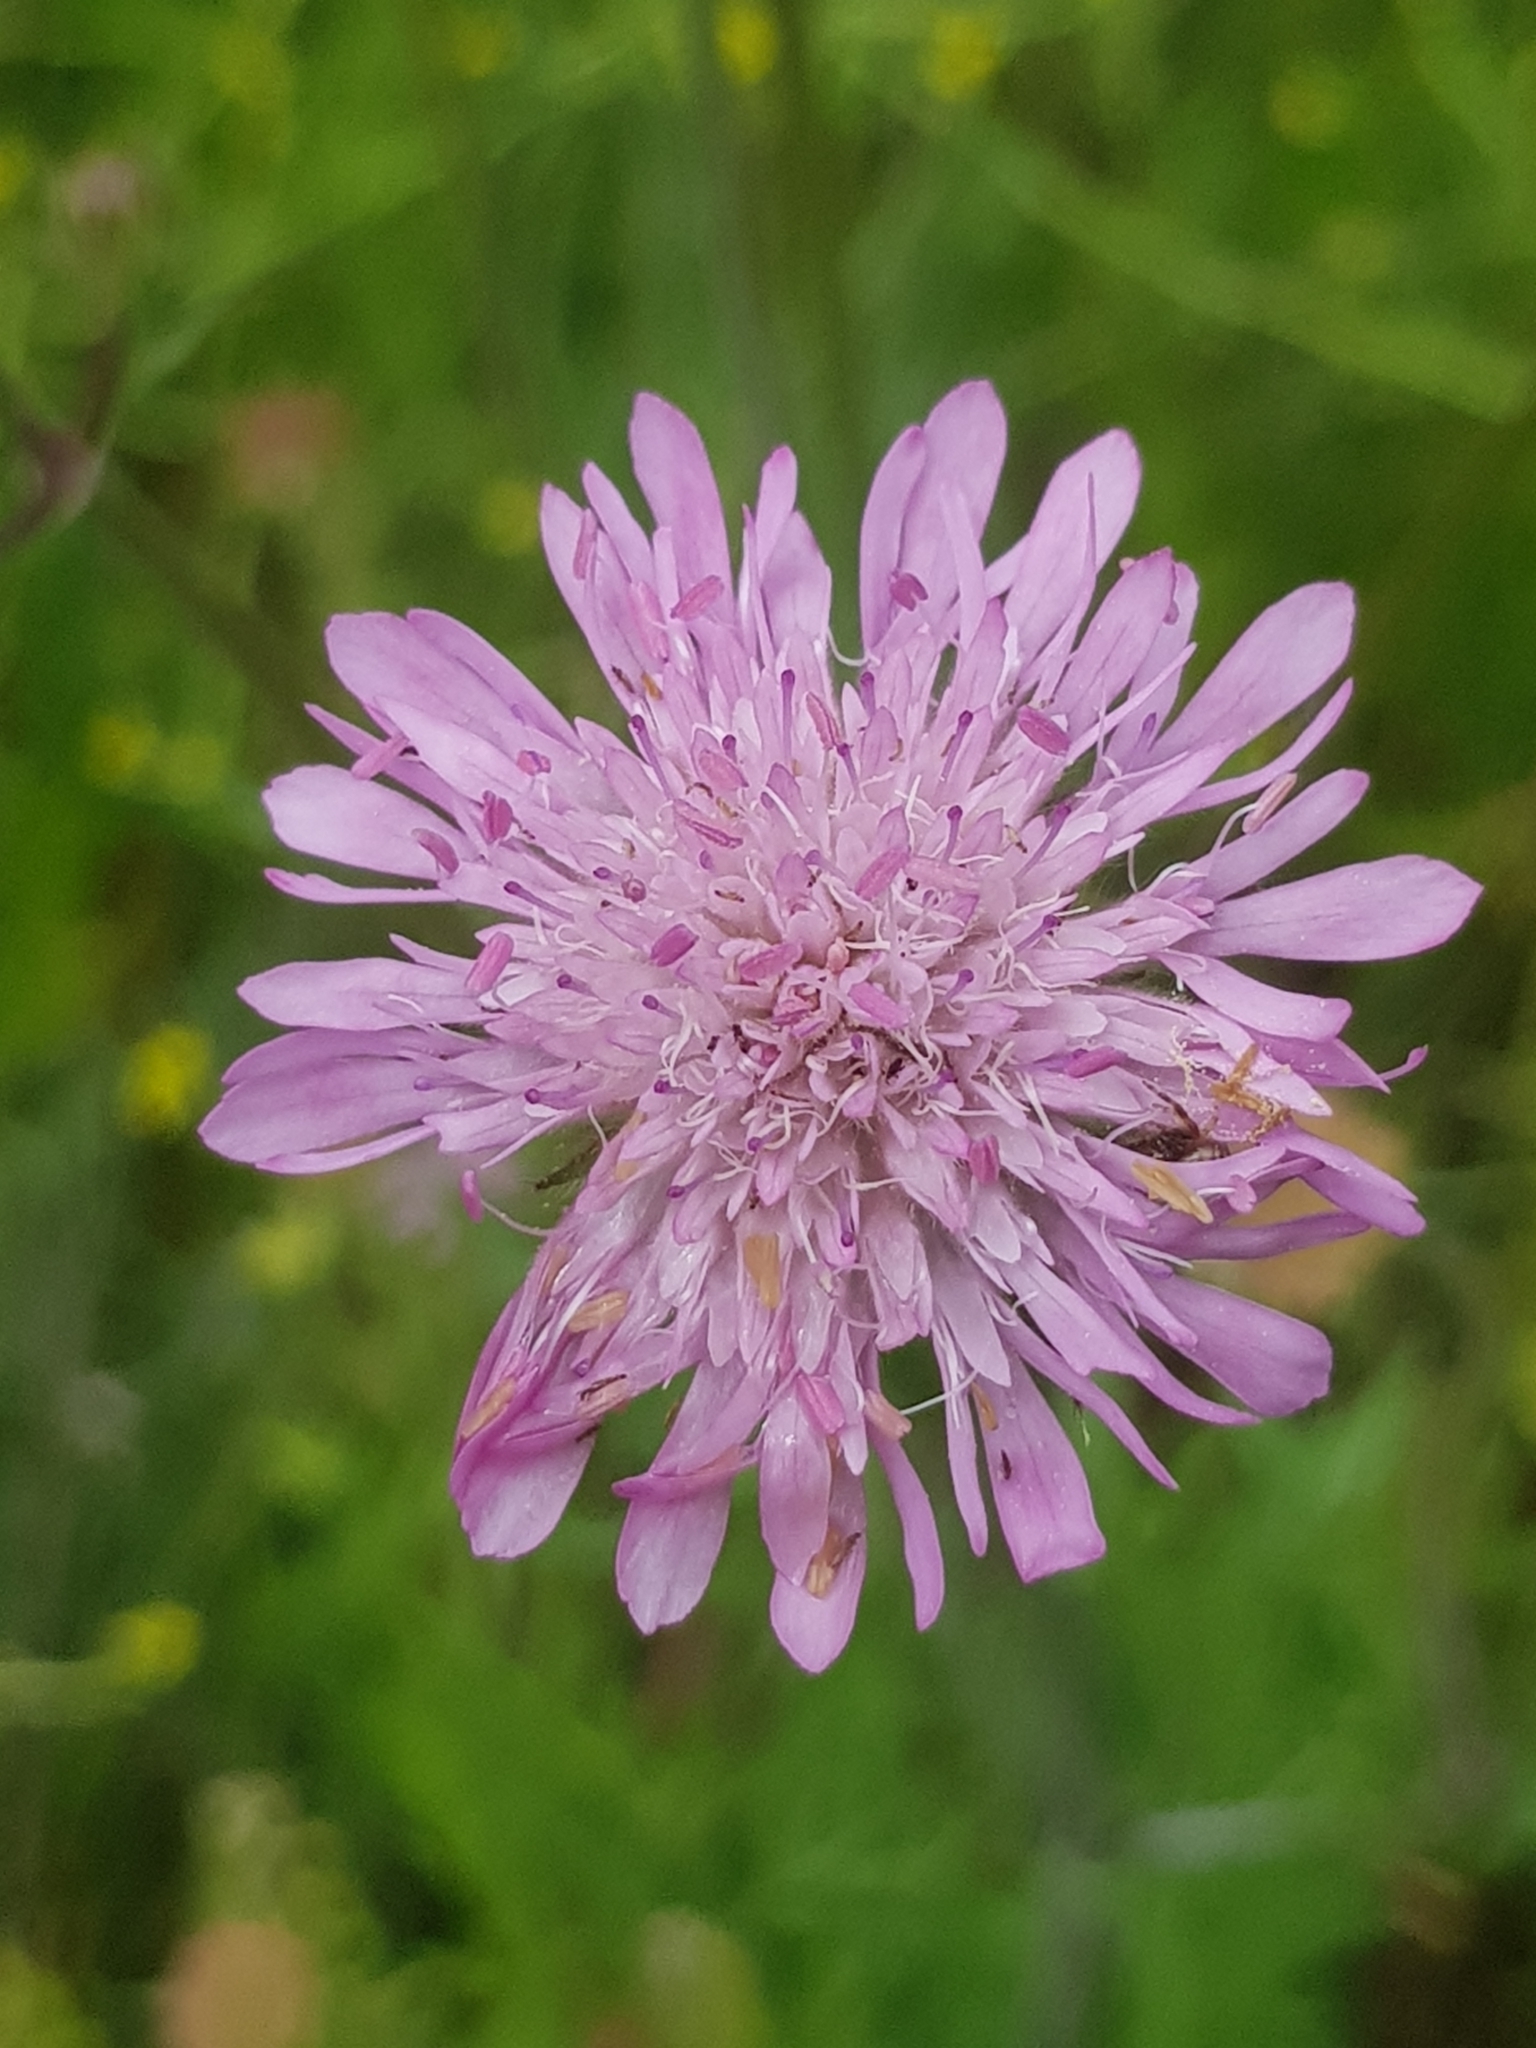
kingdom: Plantae
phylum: Tracheophyta
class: Magnoliopsida
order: Dipsacales
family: Caprifoliaceae
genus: Knautia
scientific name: Knautia integrifolia
